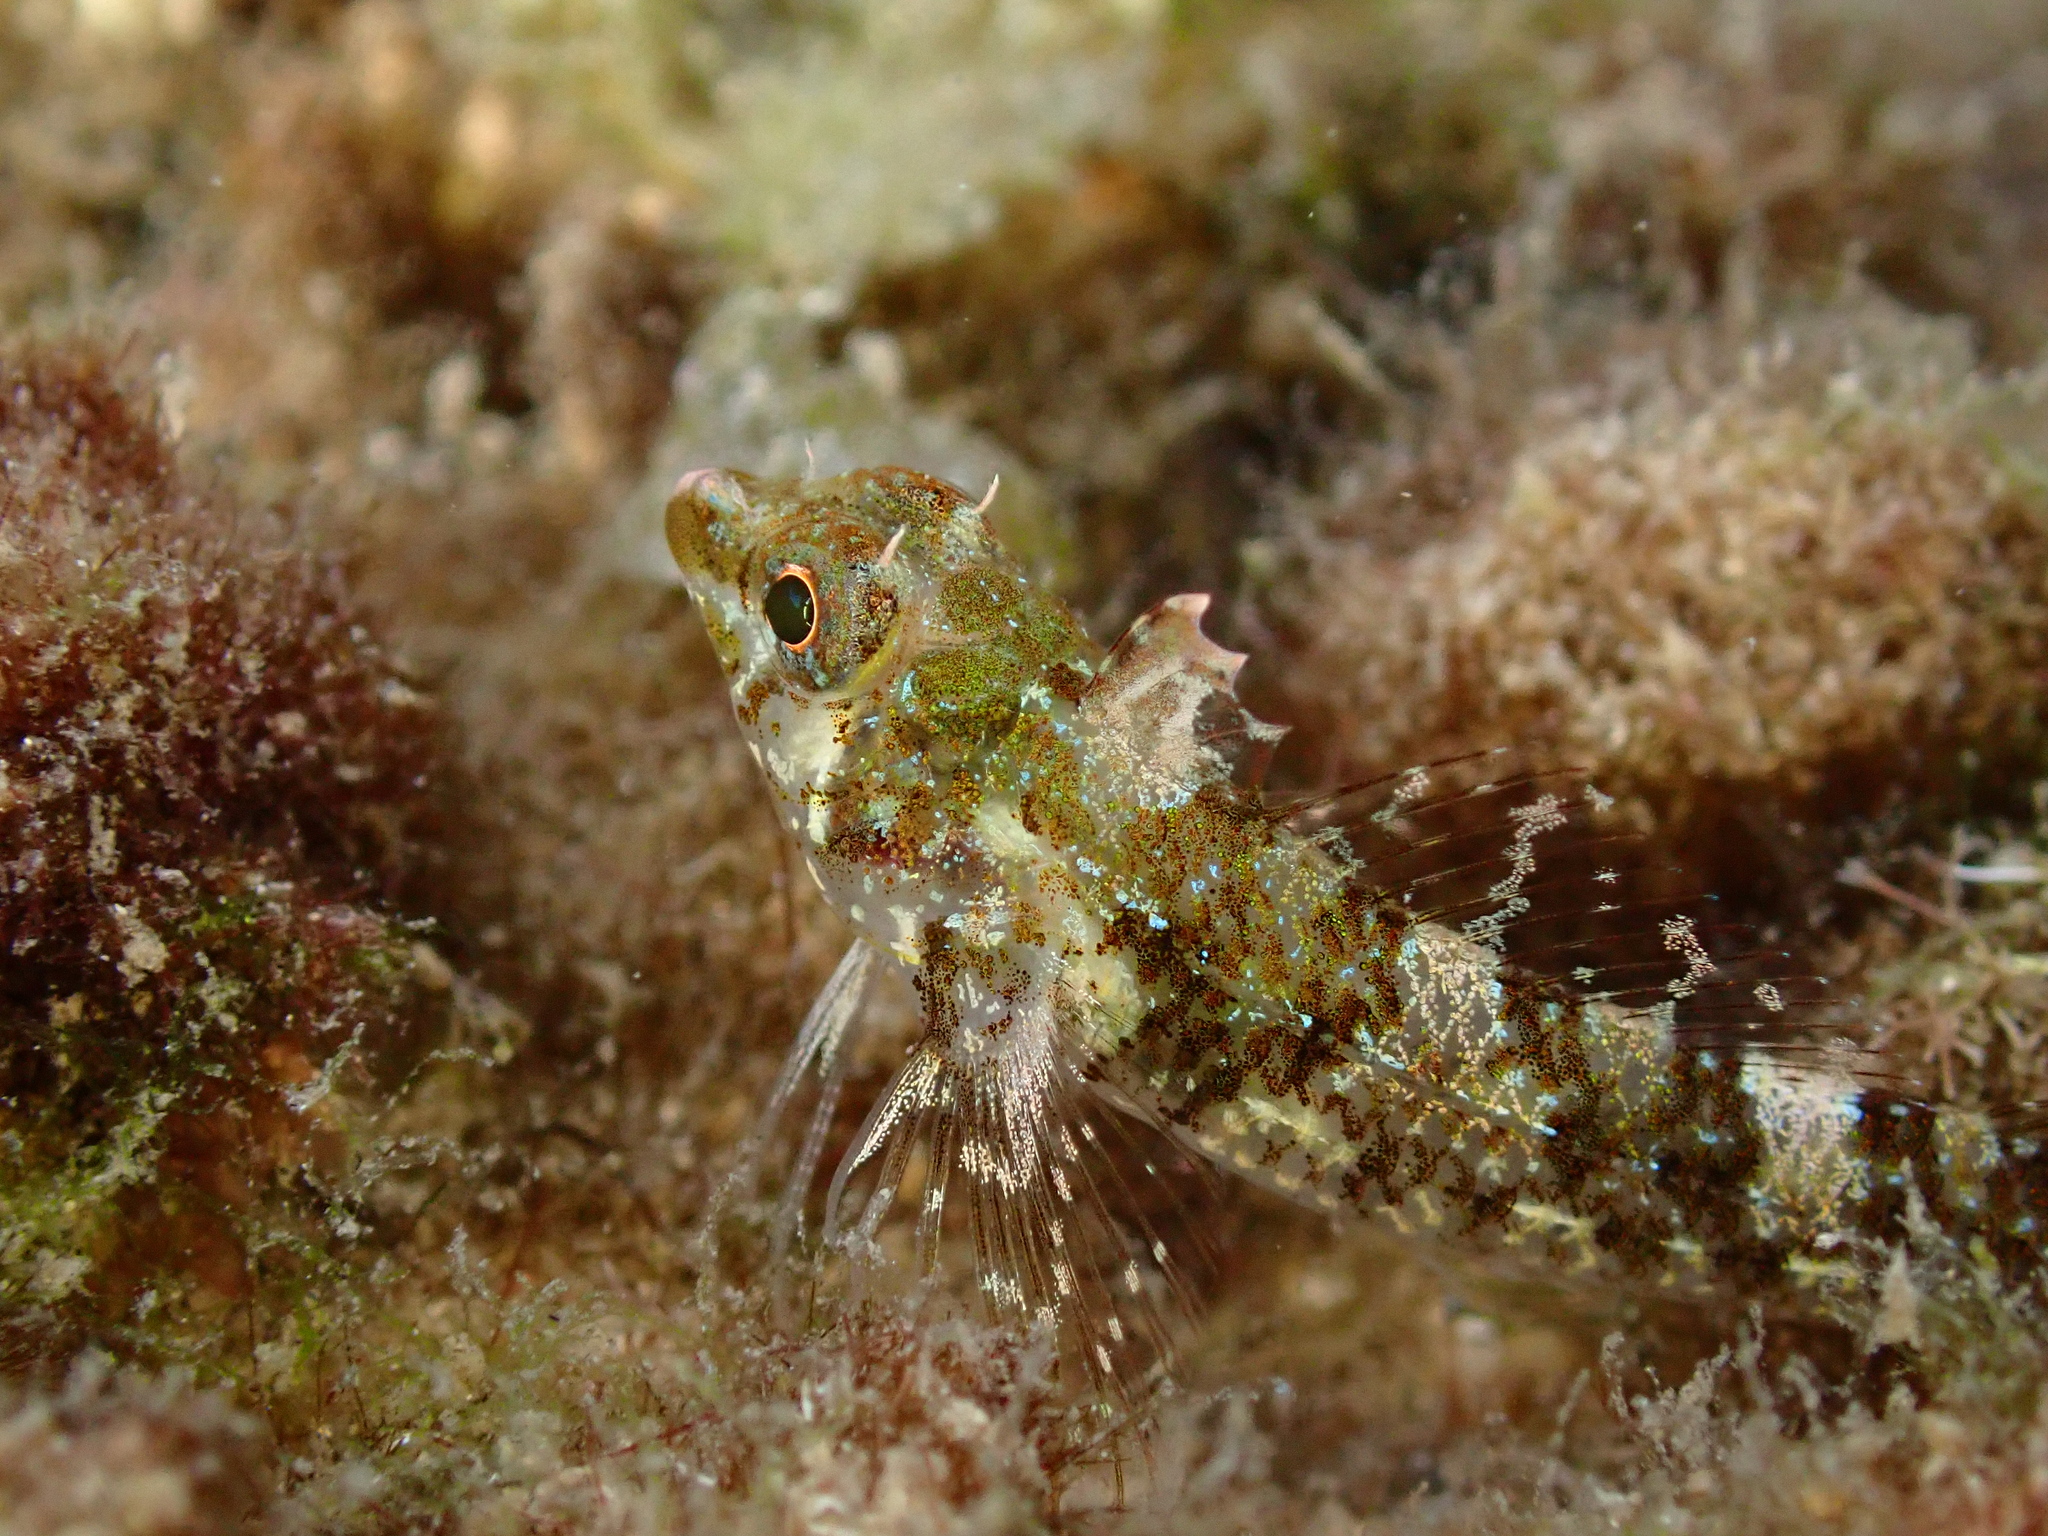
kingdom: Animalia
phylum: Chordata
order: Perciformes
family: Tripterygiidae
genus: Tripterygion
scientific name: Tripterygion tripteronotum
